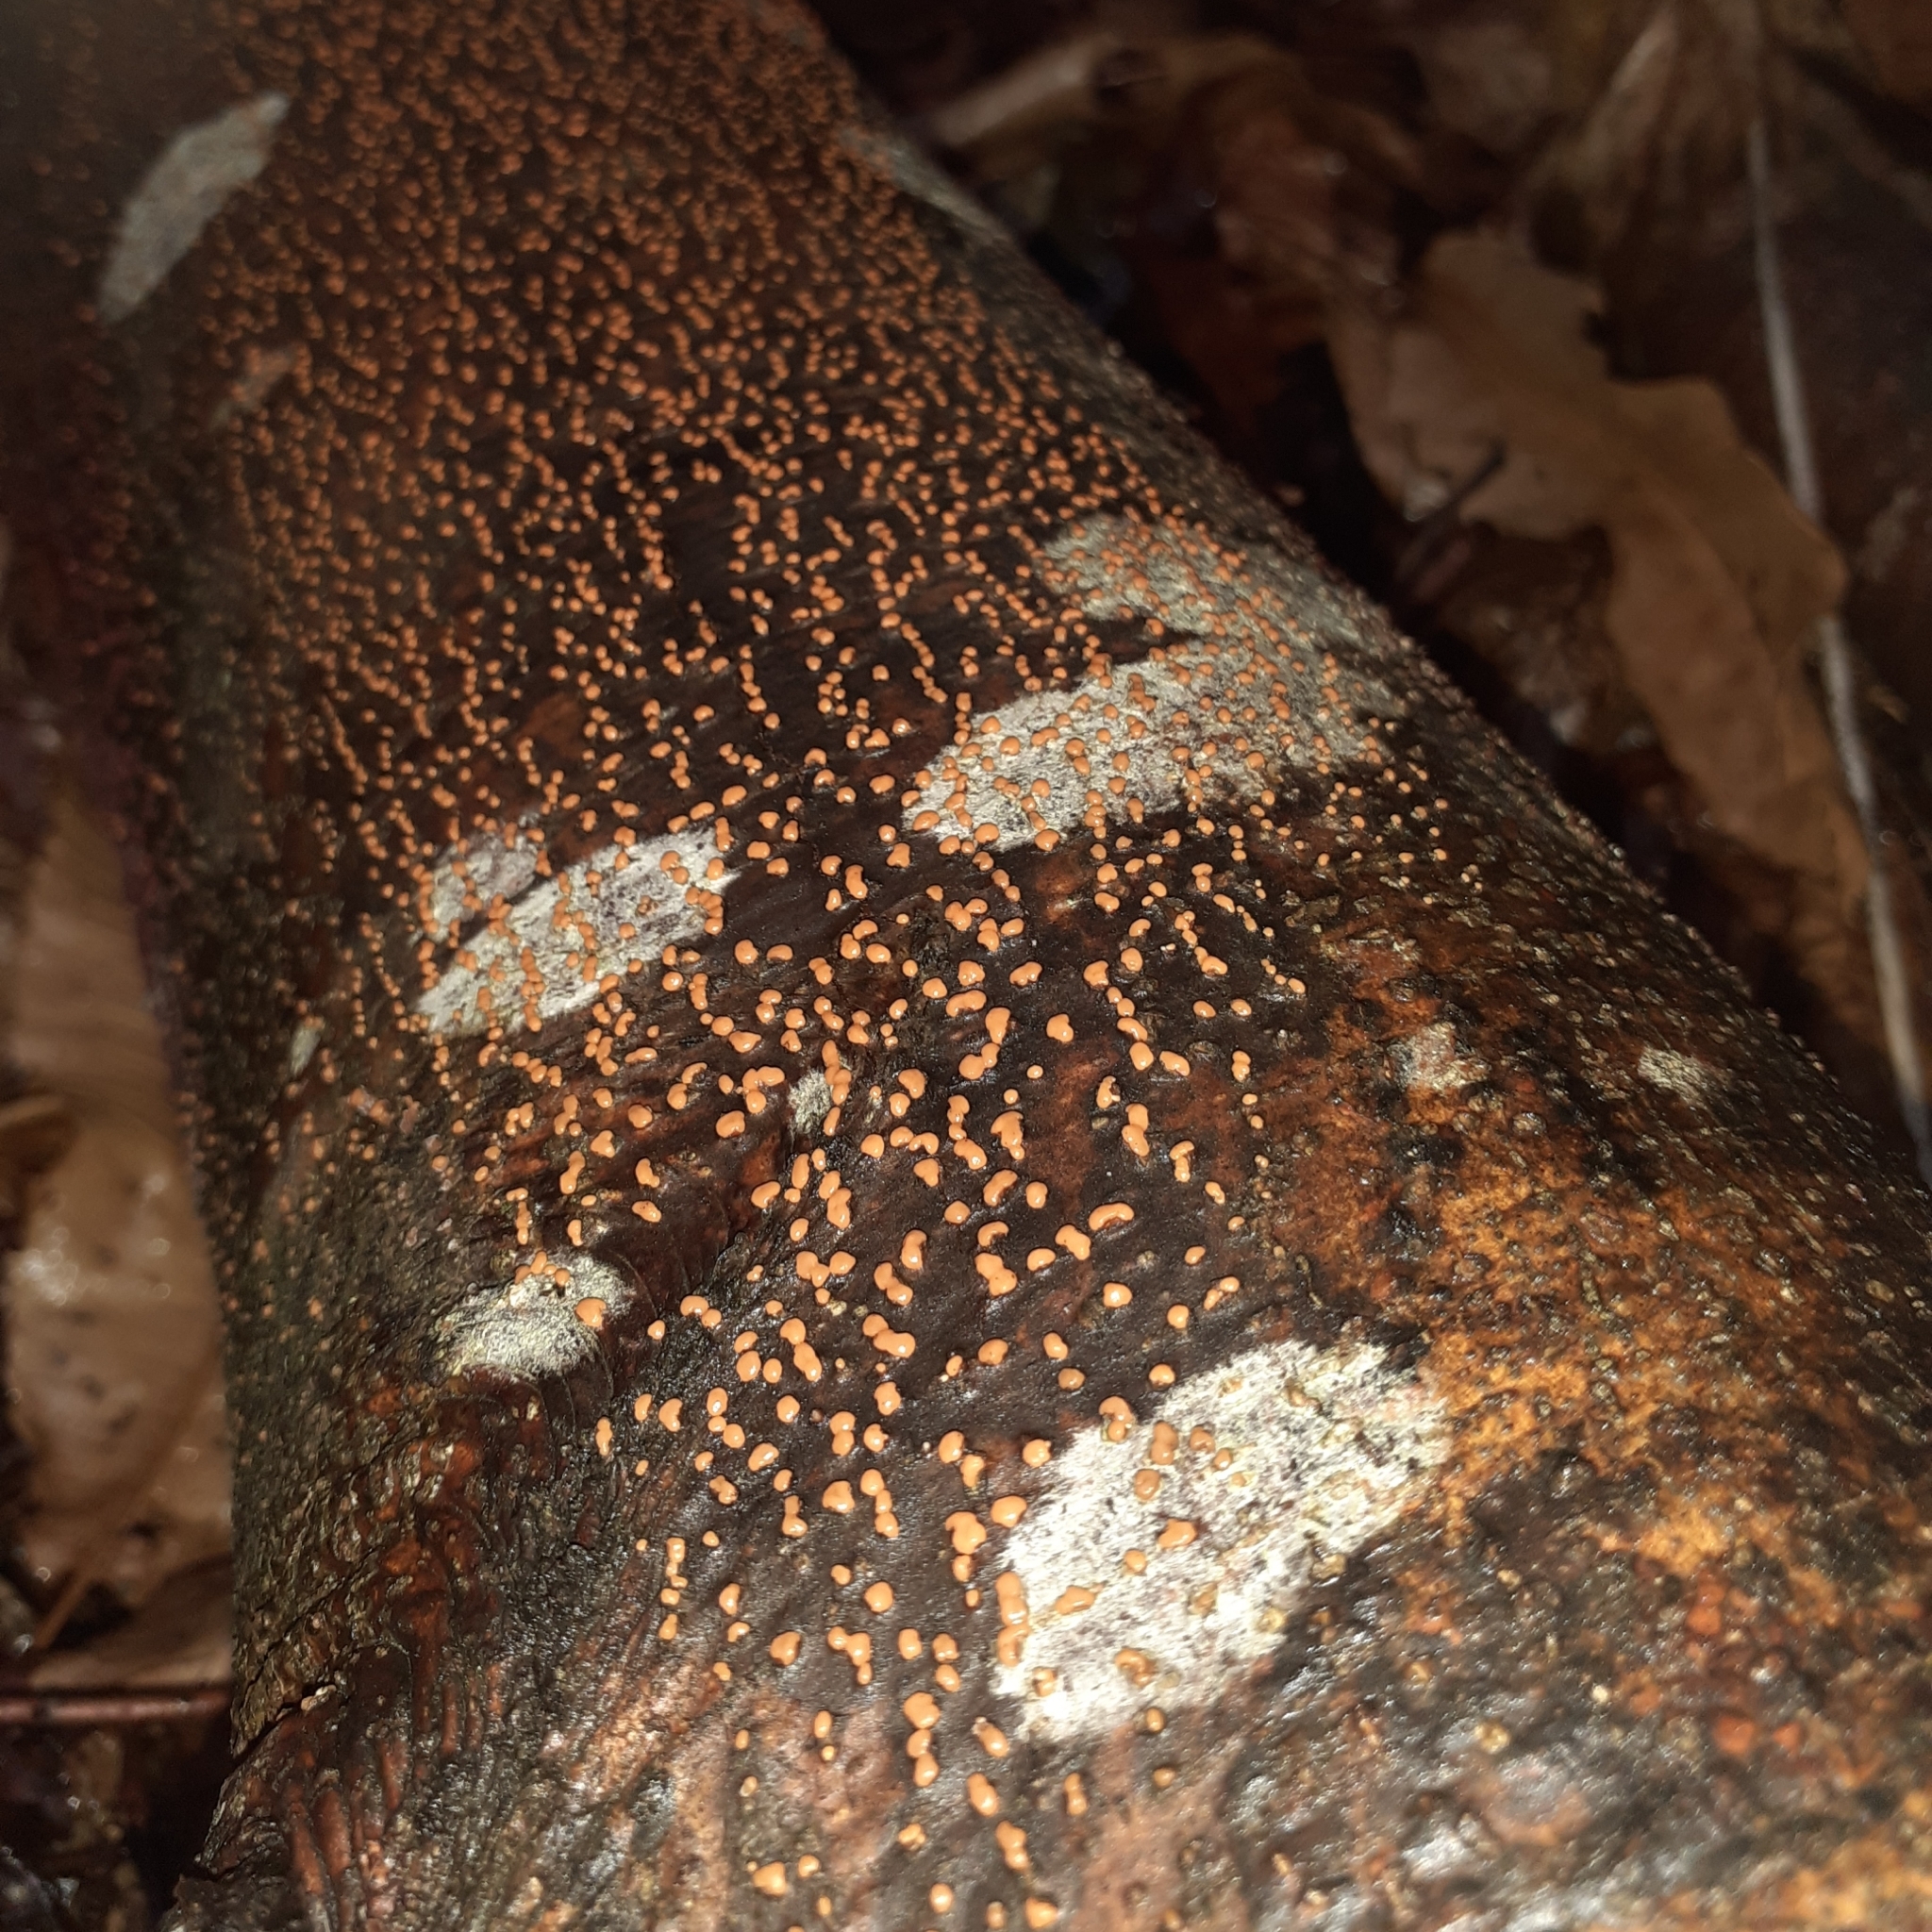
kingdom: Fungi
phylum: Ascomycota
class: Sordariomycetes
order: Hypocreales
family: Nectriaceae
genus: Nectria
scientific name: Nectria cinnabarina
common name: Coral spot
